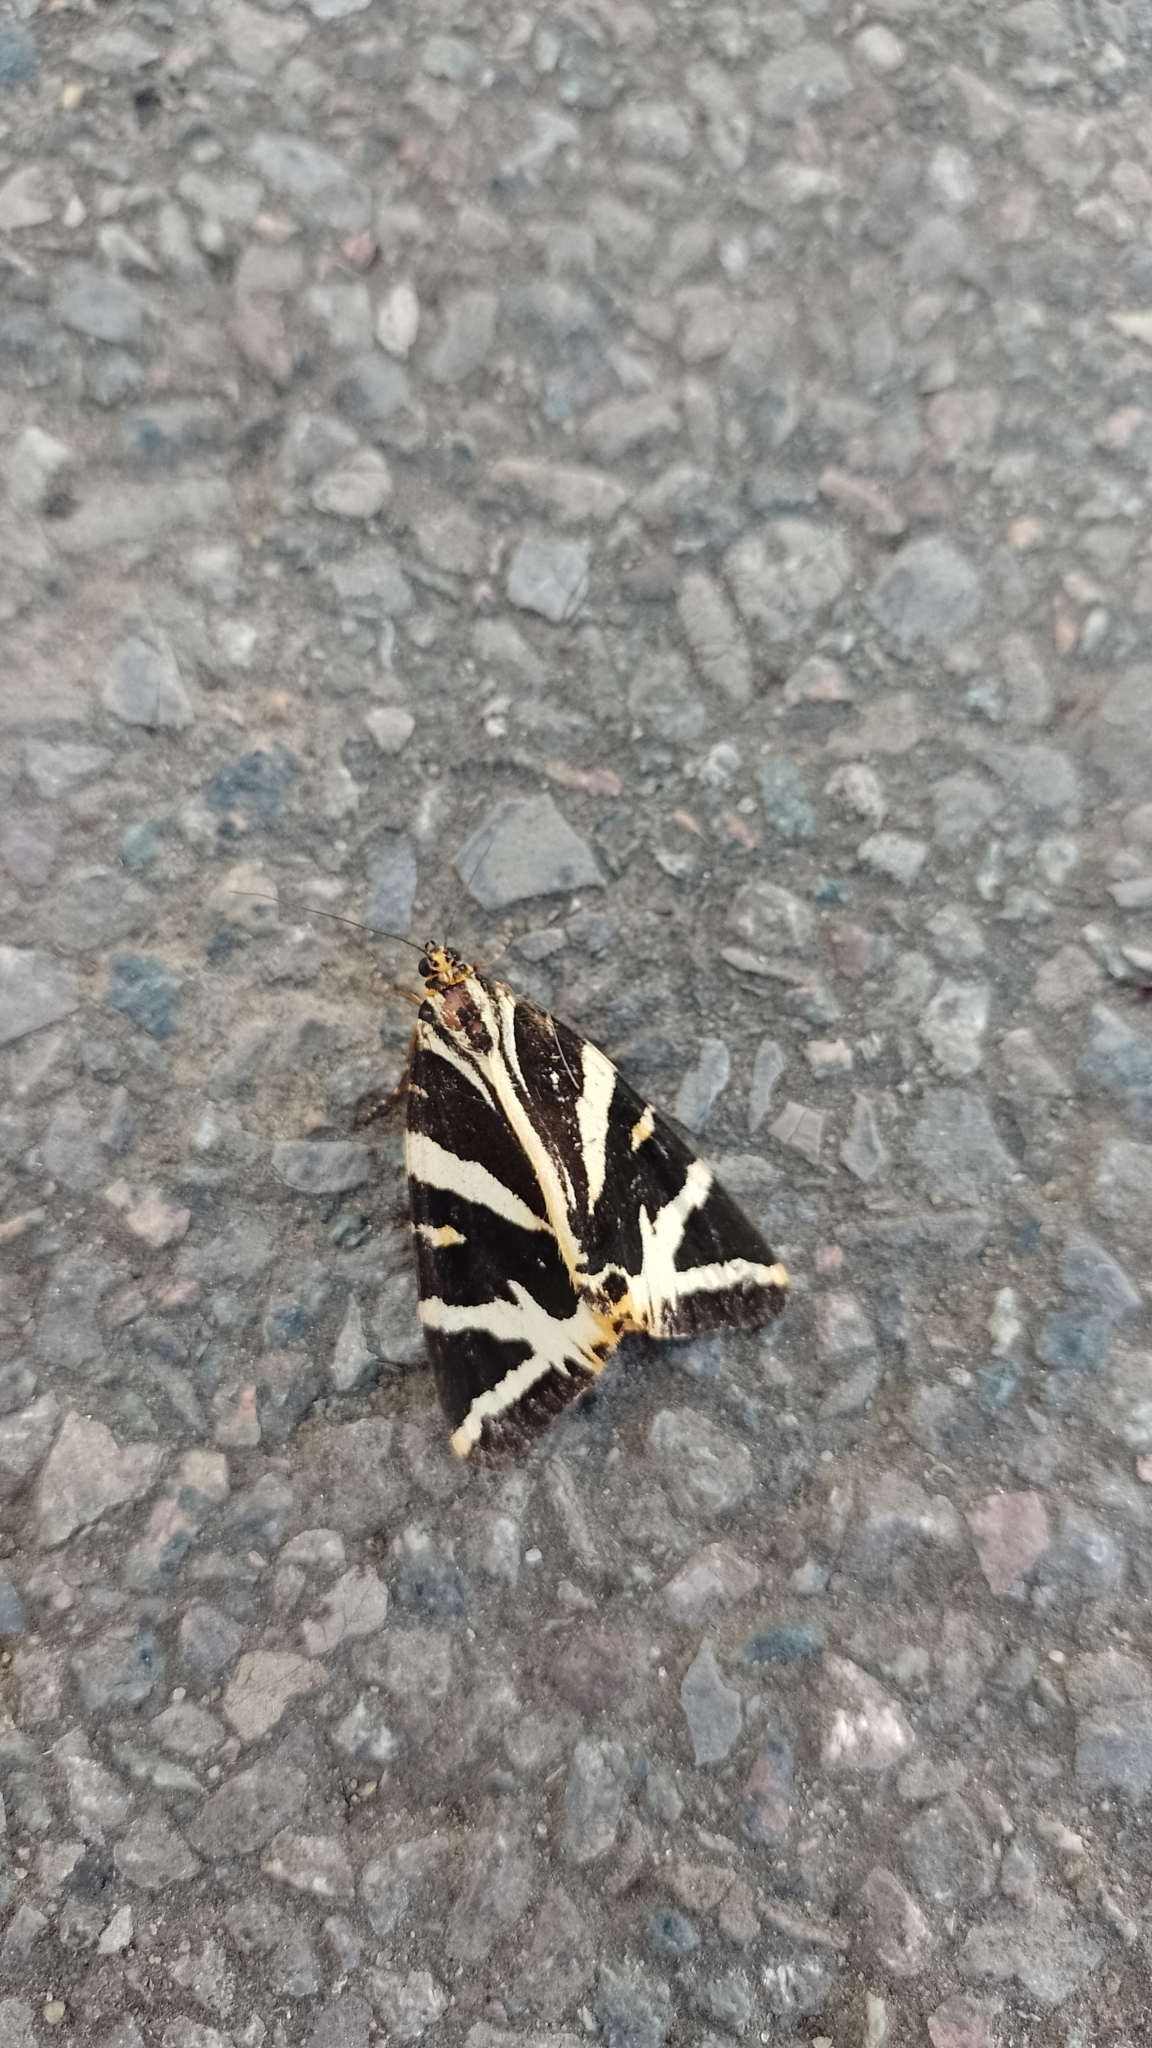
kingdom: Animalia
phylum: Arthropoda
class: Insecta
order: Lepidoptera
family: Erebidae
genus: Euplagia
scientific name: Euplagia quadripunctaria
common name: Jersey tiger
